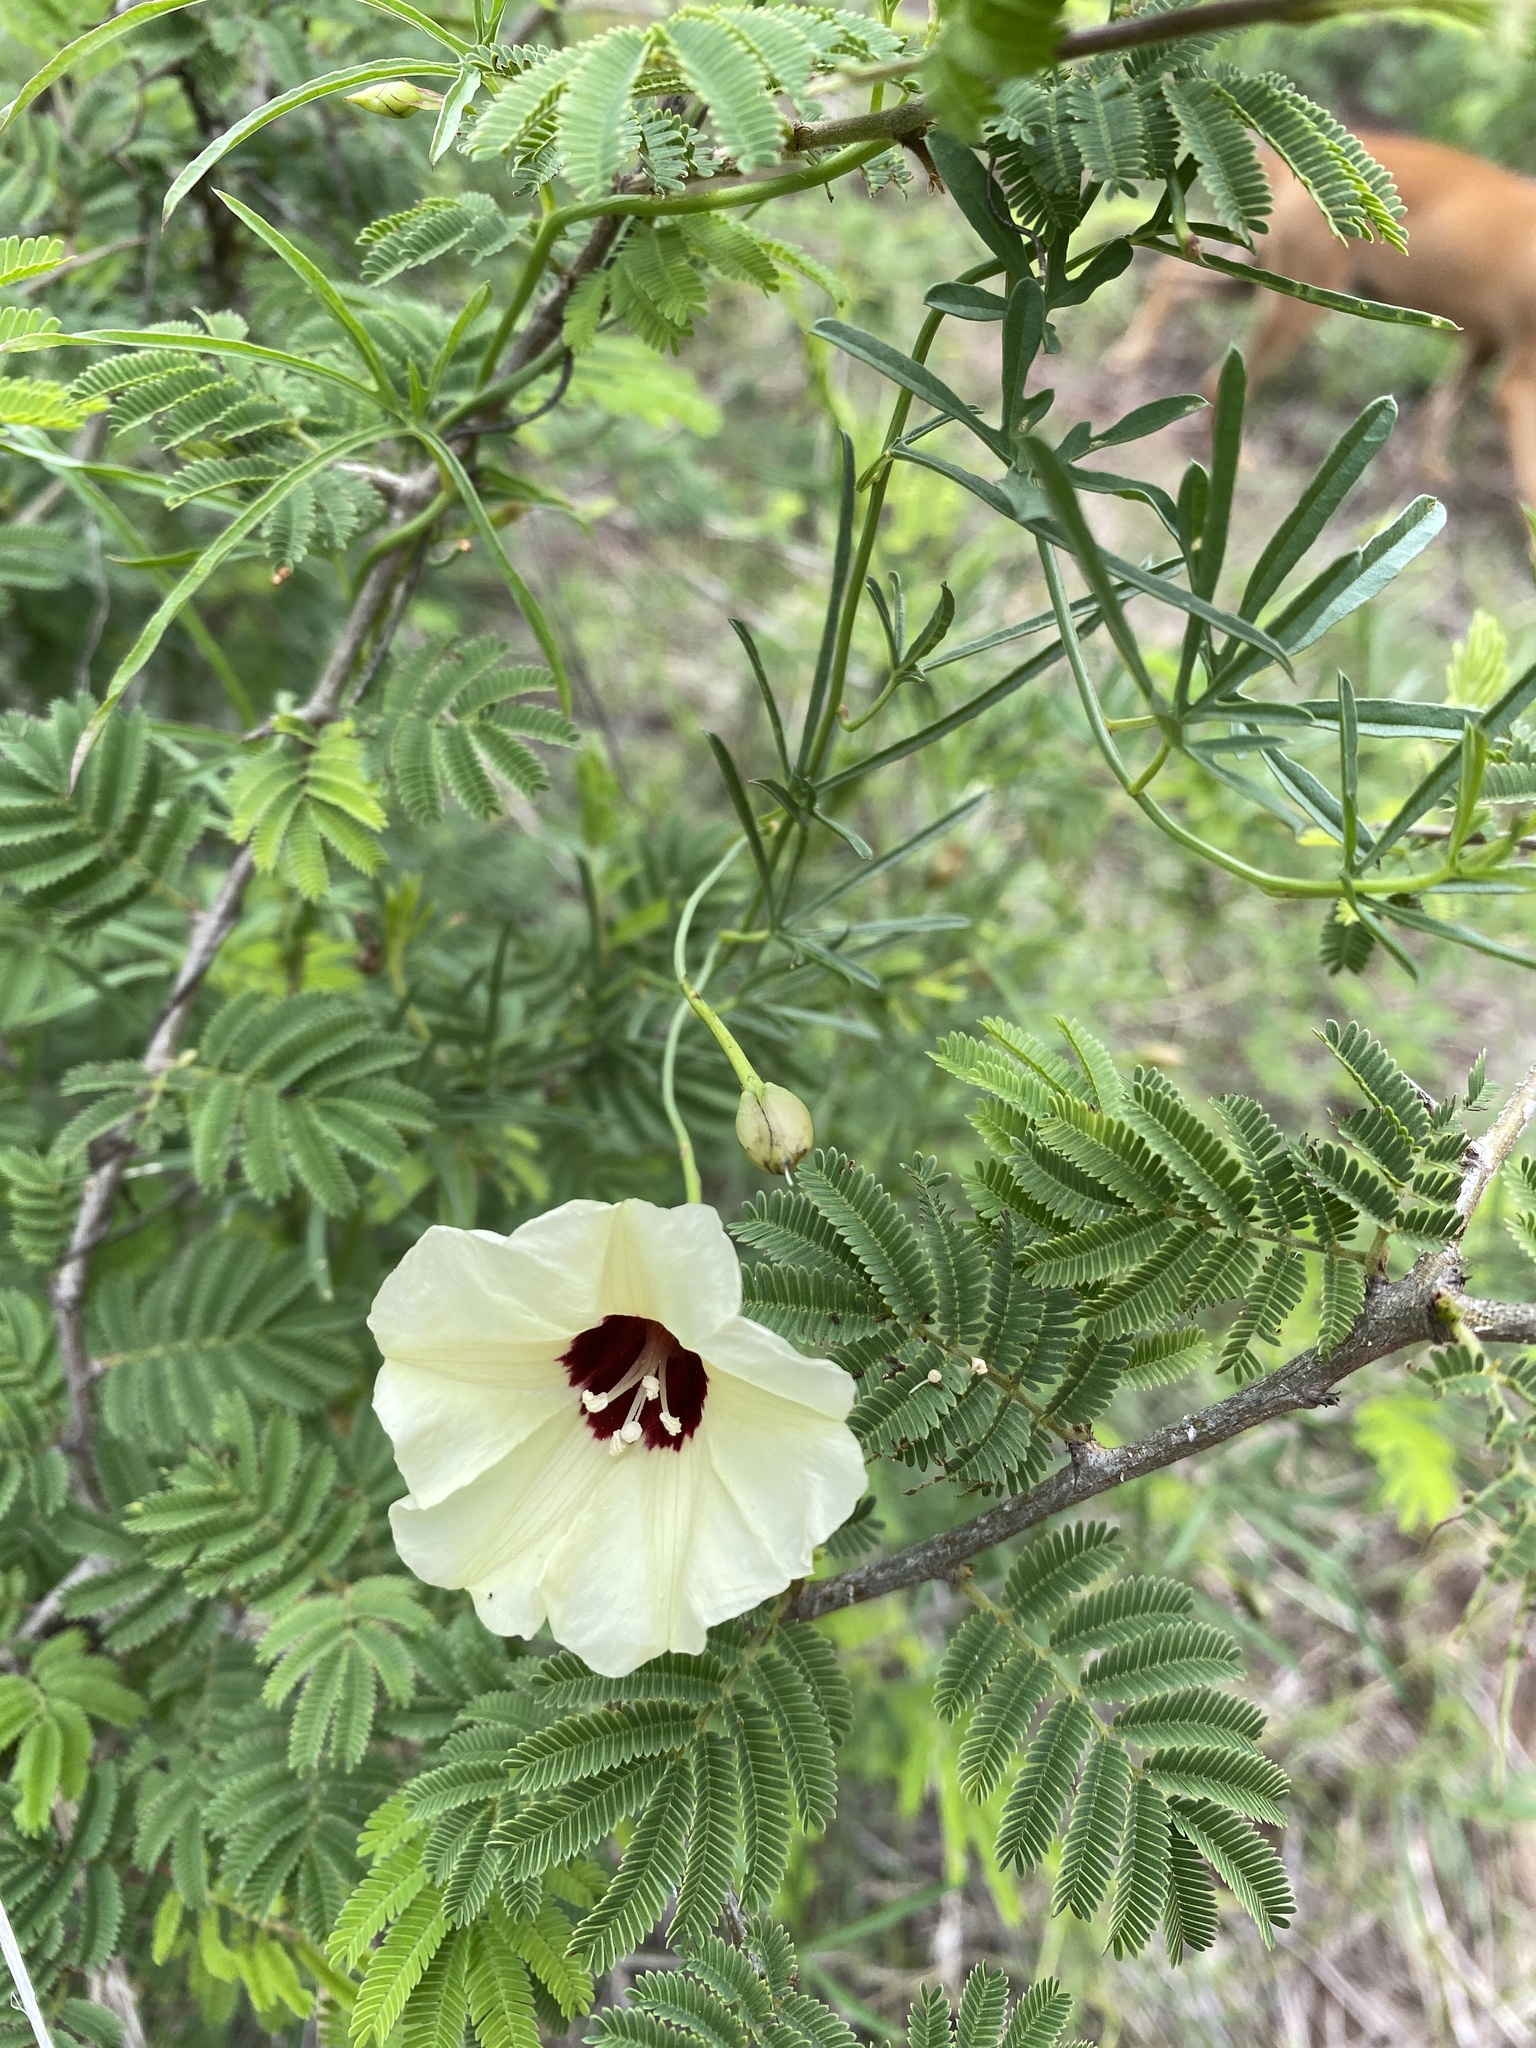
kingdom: Plantae
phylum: Tracheophyta
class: Magnoliopsida
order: Solanales
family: Convolvulaceae
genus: Merremia
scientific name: Merremia palmata
